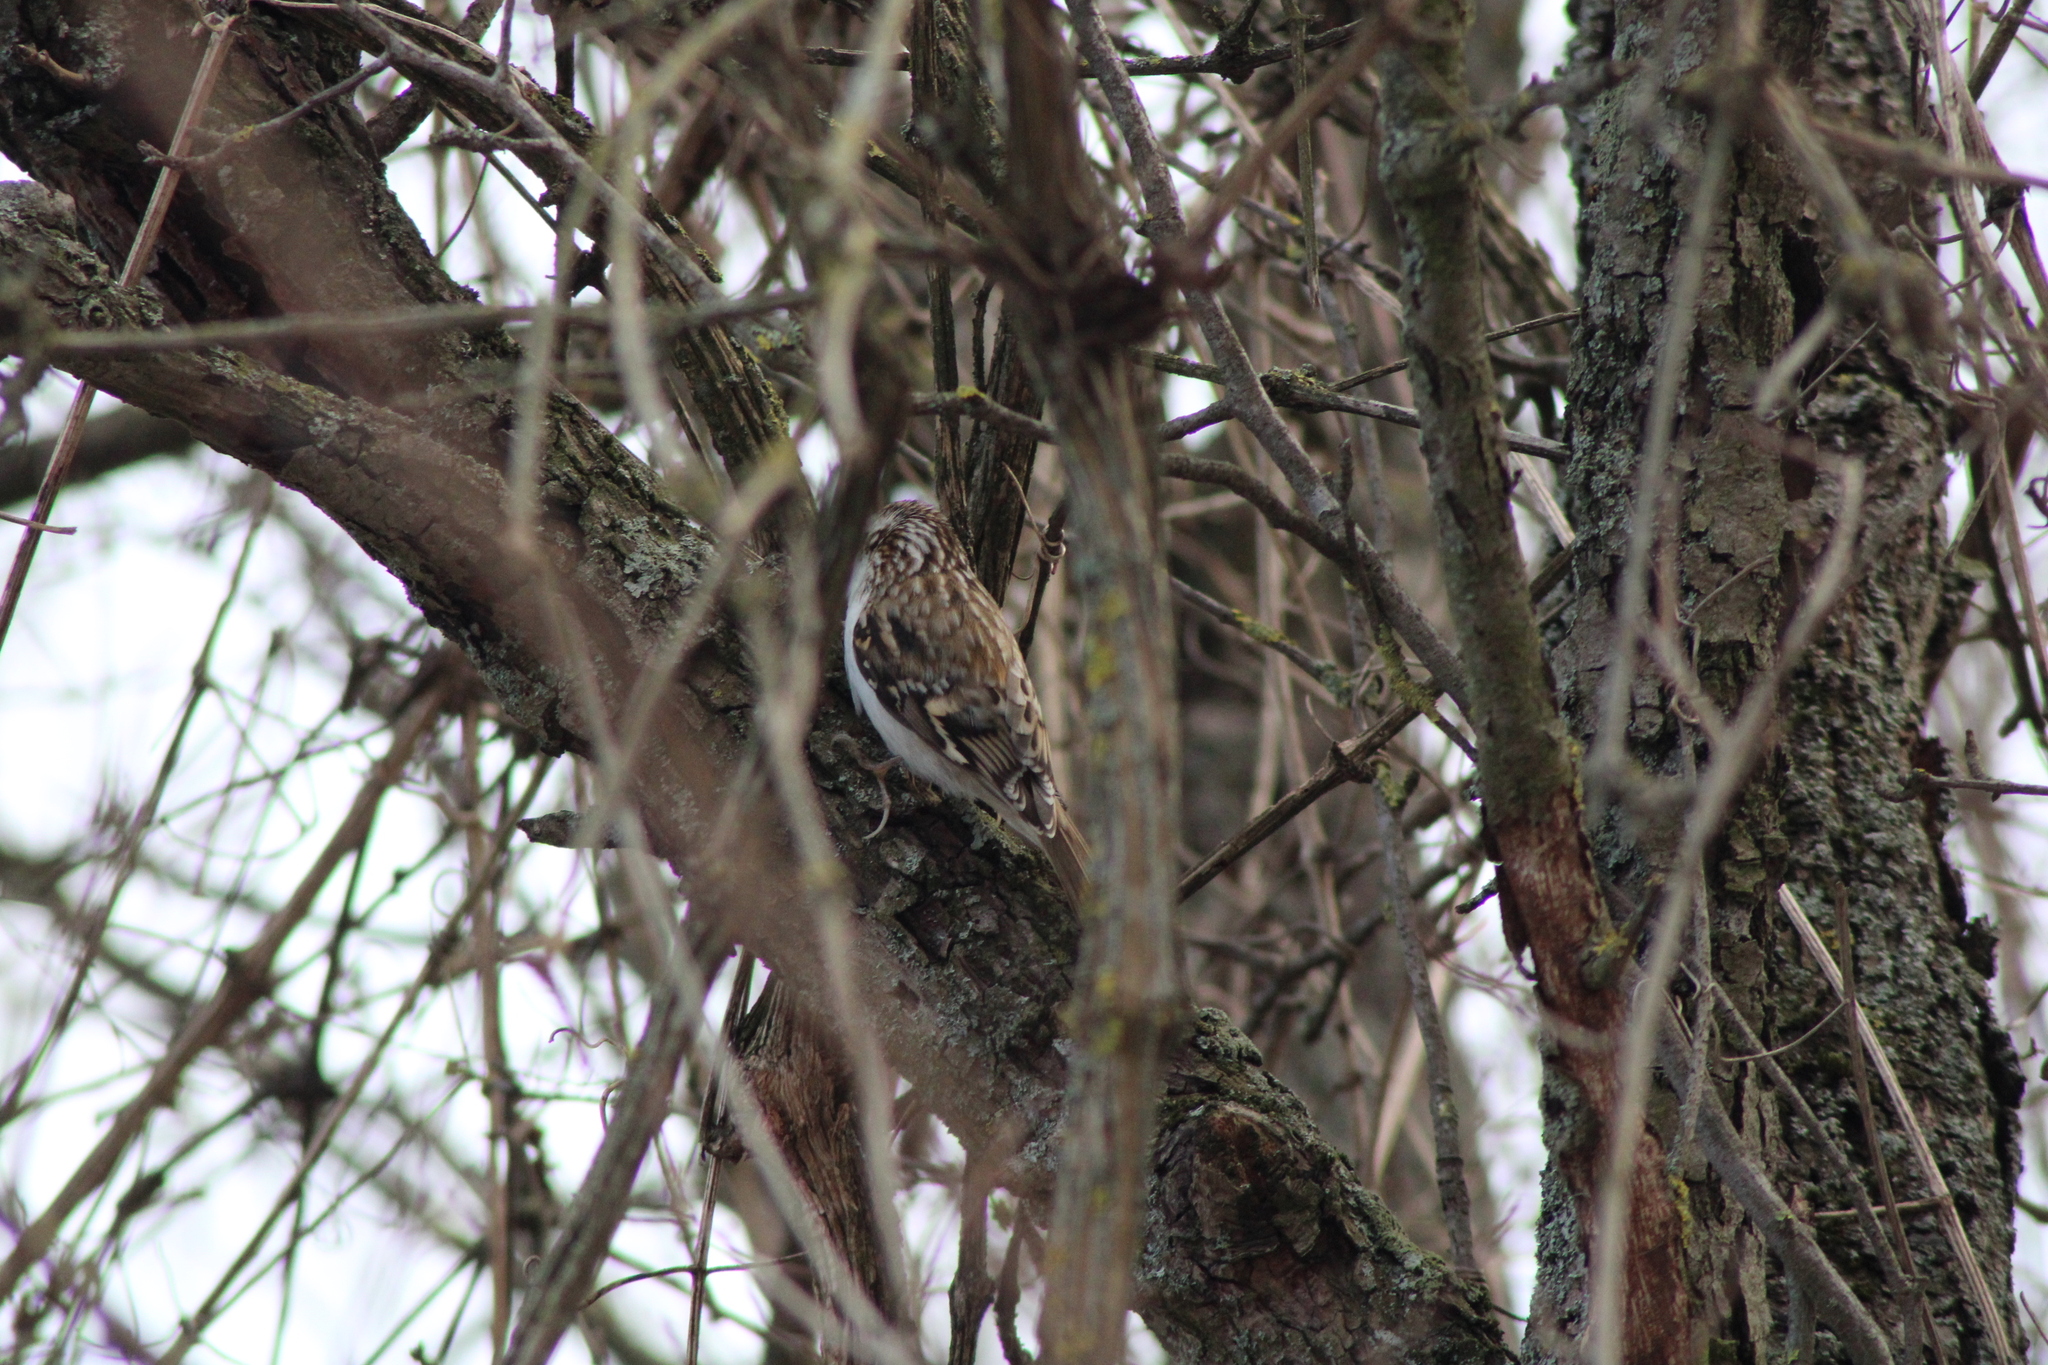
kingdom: Animalia
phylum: Chordata
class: Aves
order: Passeriformes
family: Certhiidae
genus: Certhia
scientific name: Certhia familiaris
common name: Eurasian treecreeper
